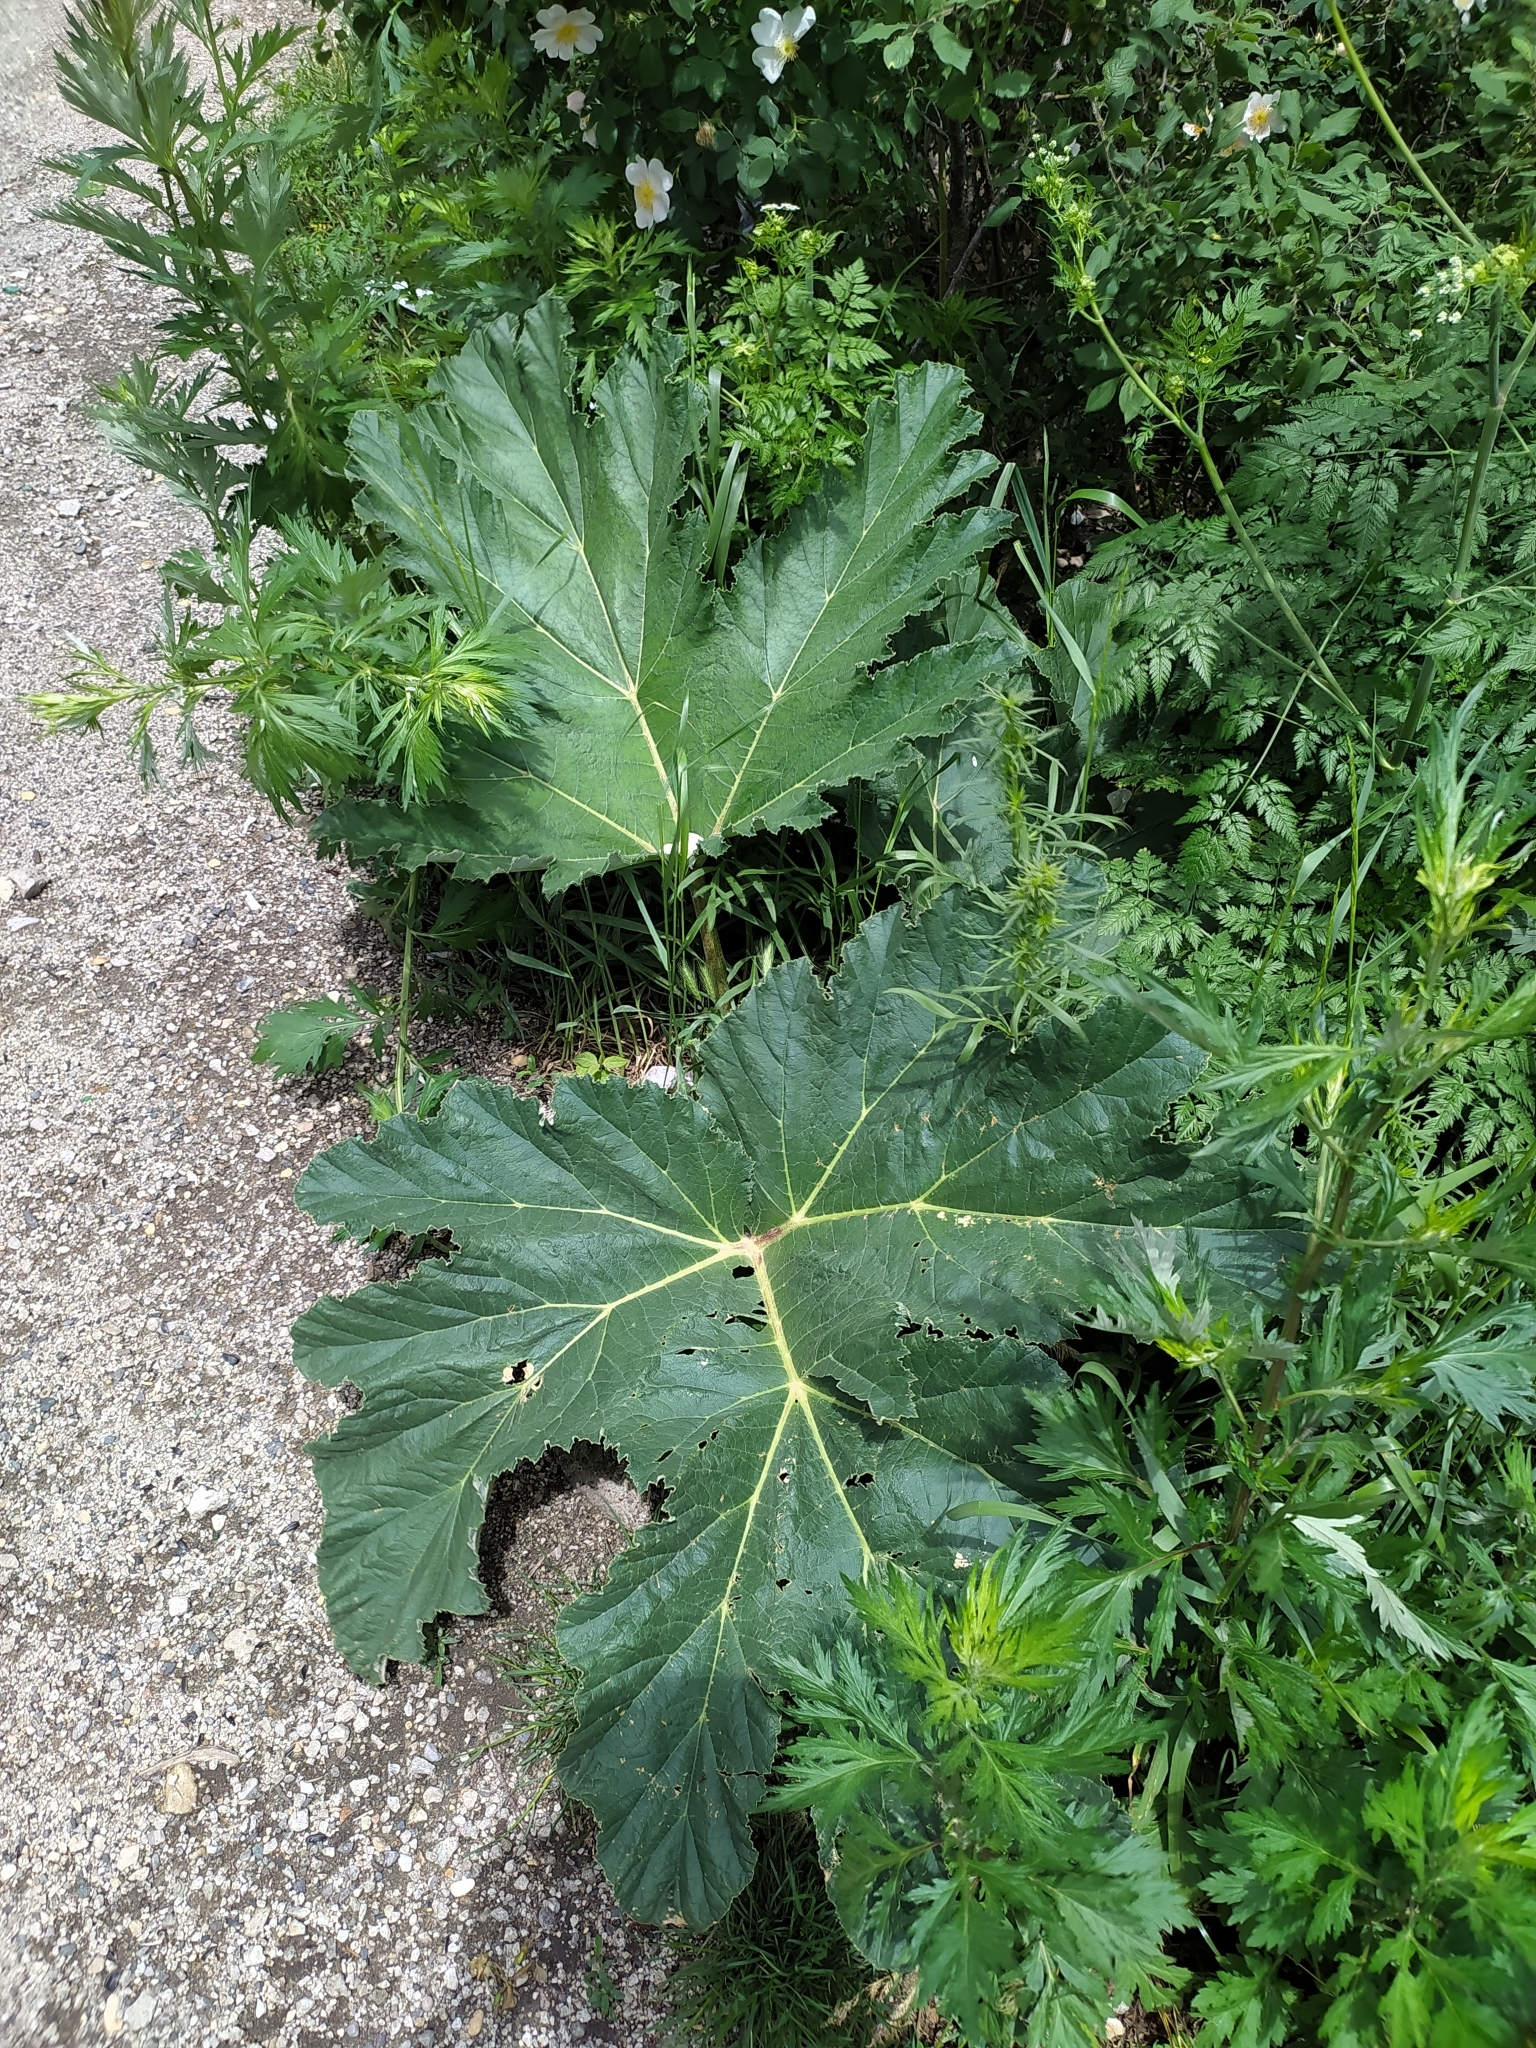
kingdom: Plantae
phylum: Tracheophyta
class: Magnoliopsida
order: Apiales
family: Apiaceae
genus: Heracleum
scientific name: Heracleum leskovii
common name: Leskov's cow-parsnip
